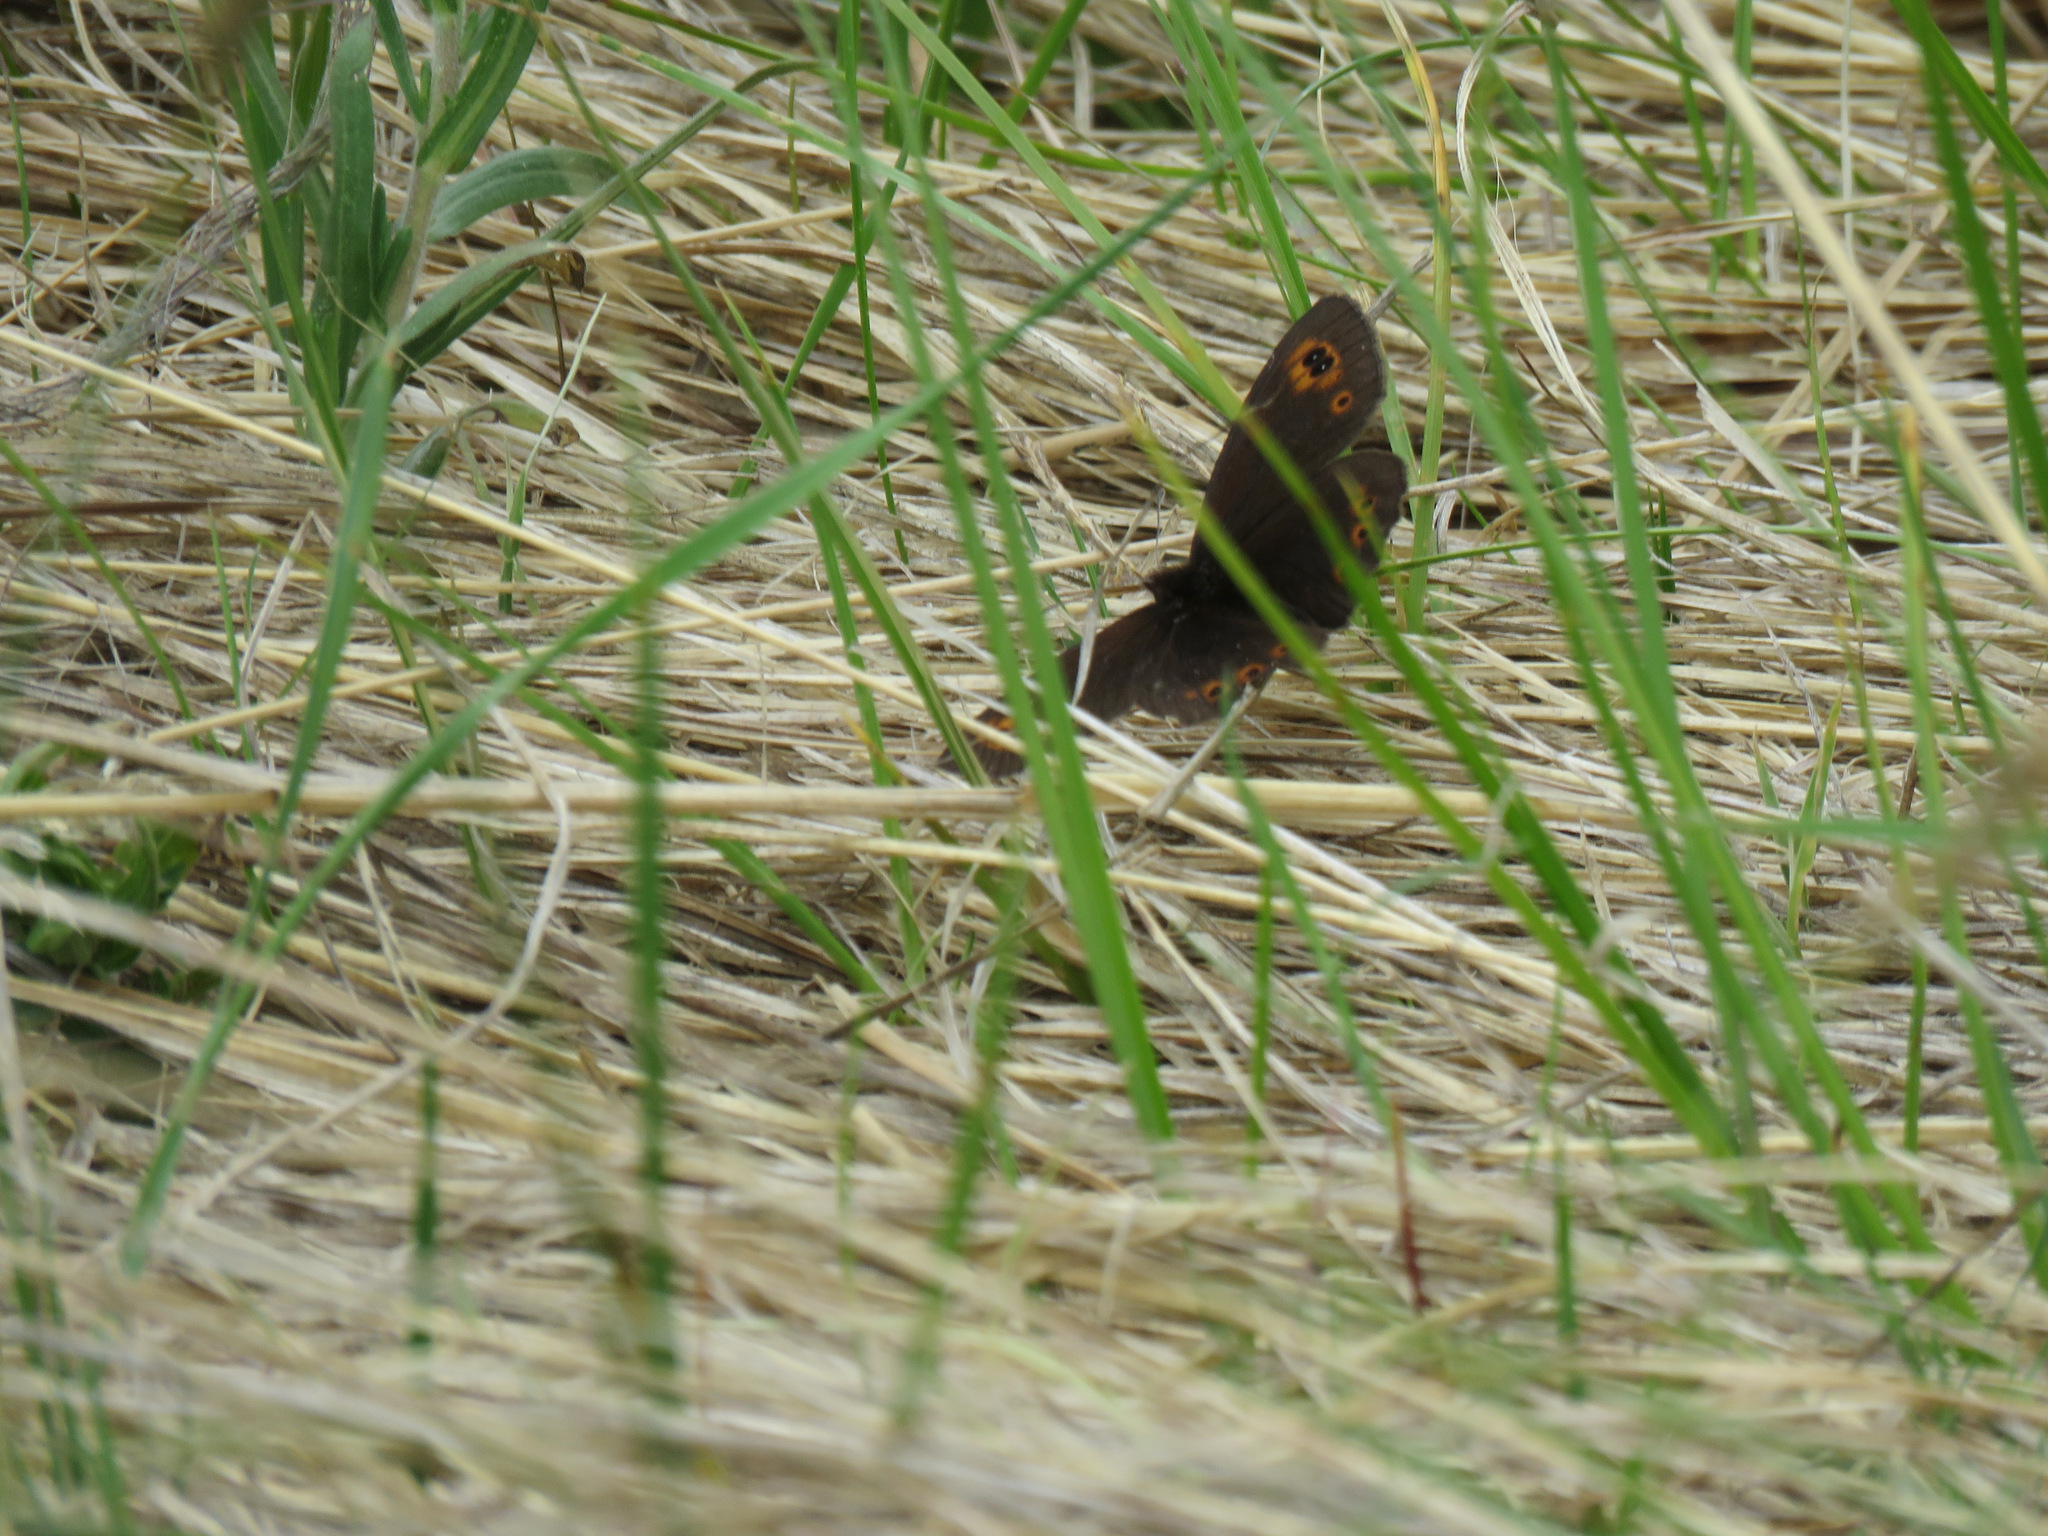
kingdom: Animalia
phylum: Arthropoda
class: Insecta
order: Lepidoptera
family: Nymphalidae
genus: Erebia
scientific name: Erebia epipsodea
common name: Common alpine
